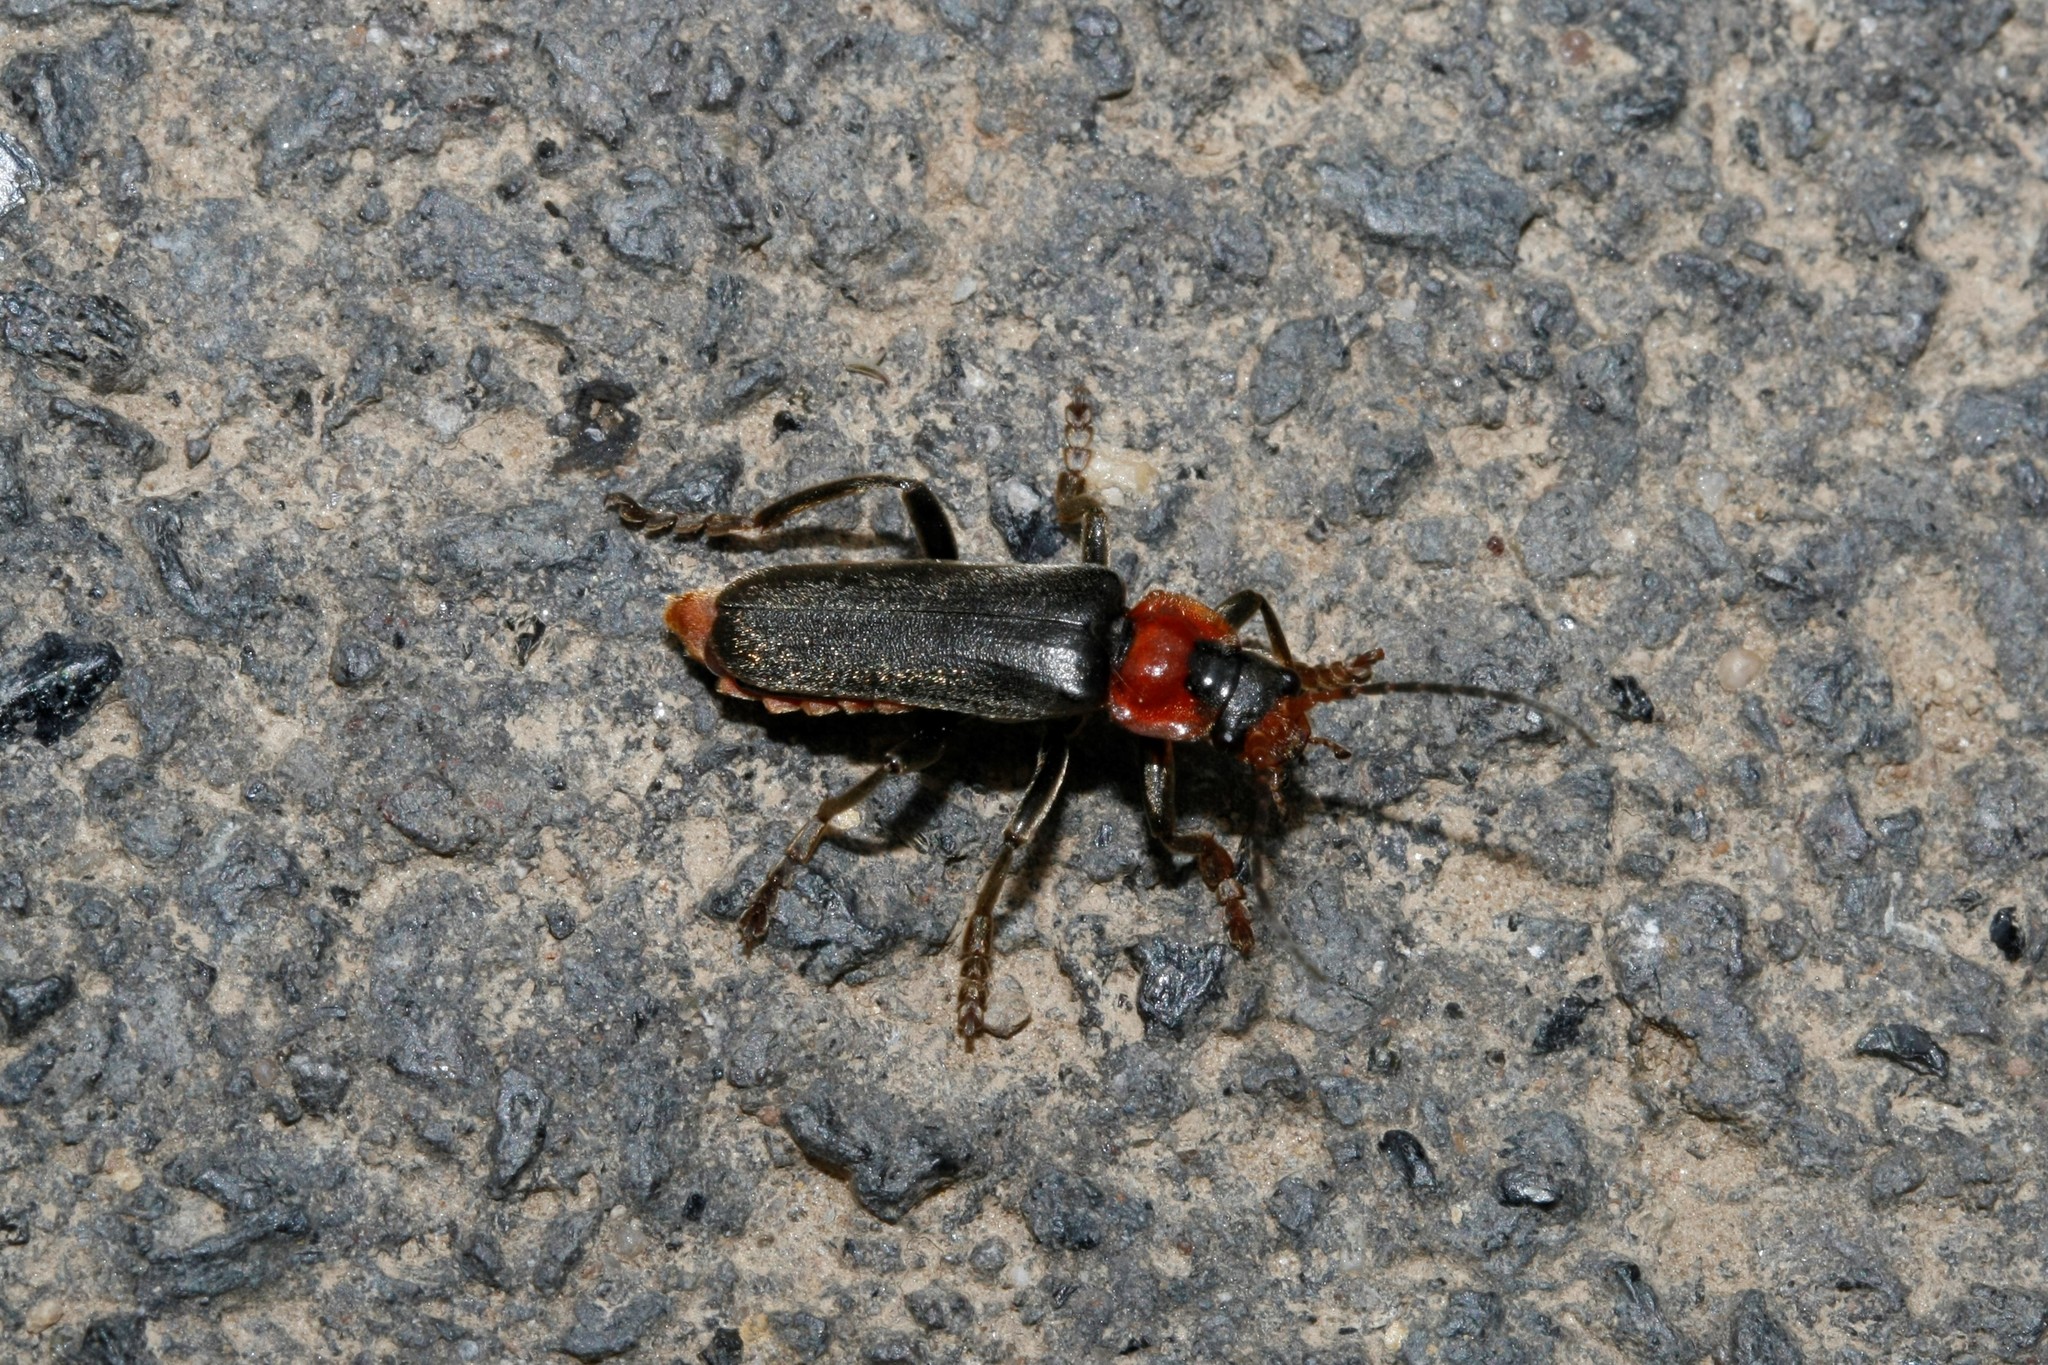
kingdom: Animalia
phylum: Arthropoda
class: Insecta
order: Coleoptera
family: Cantharidae
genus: Cantharis
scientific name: Cantharis fusca
